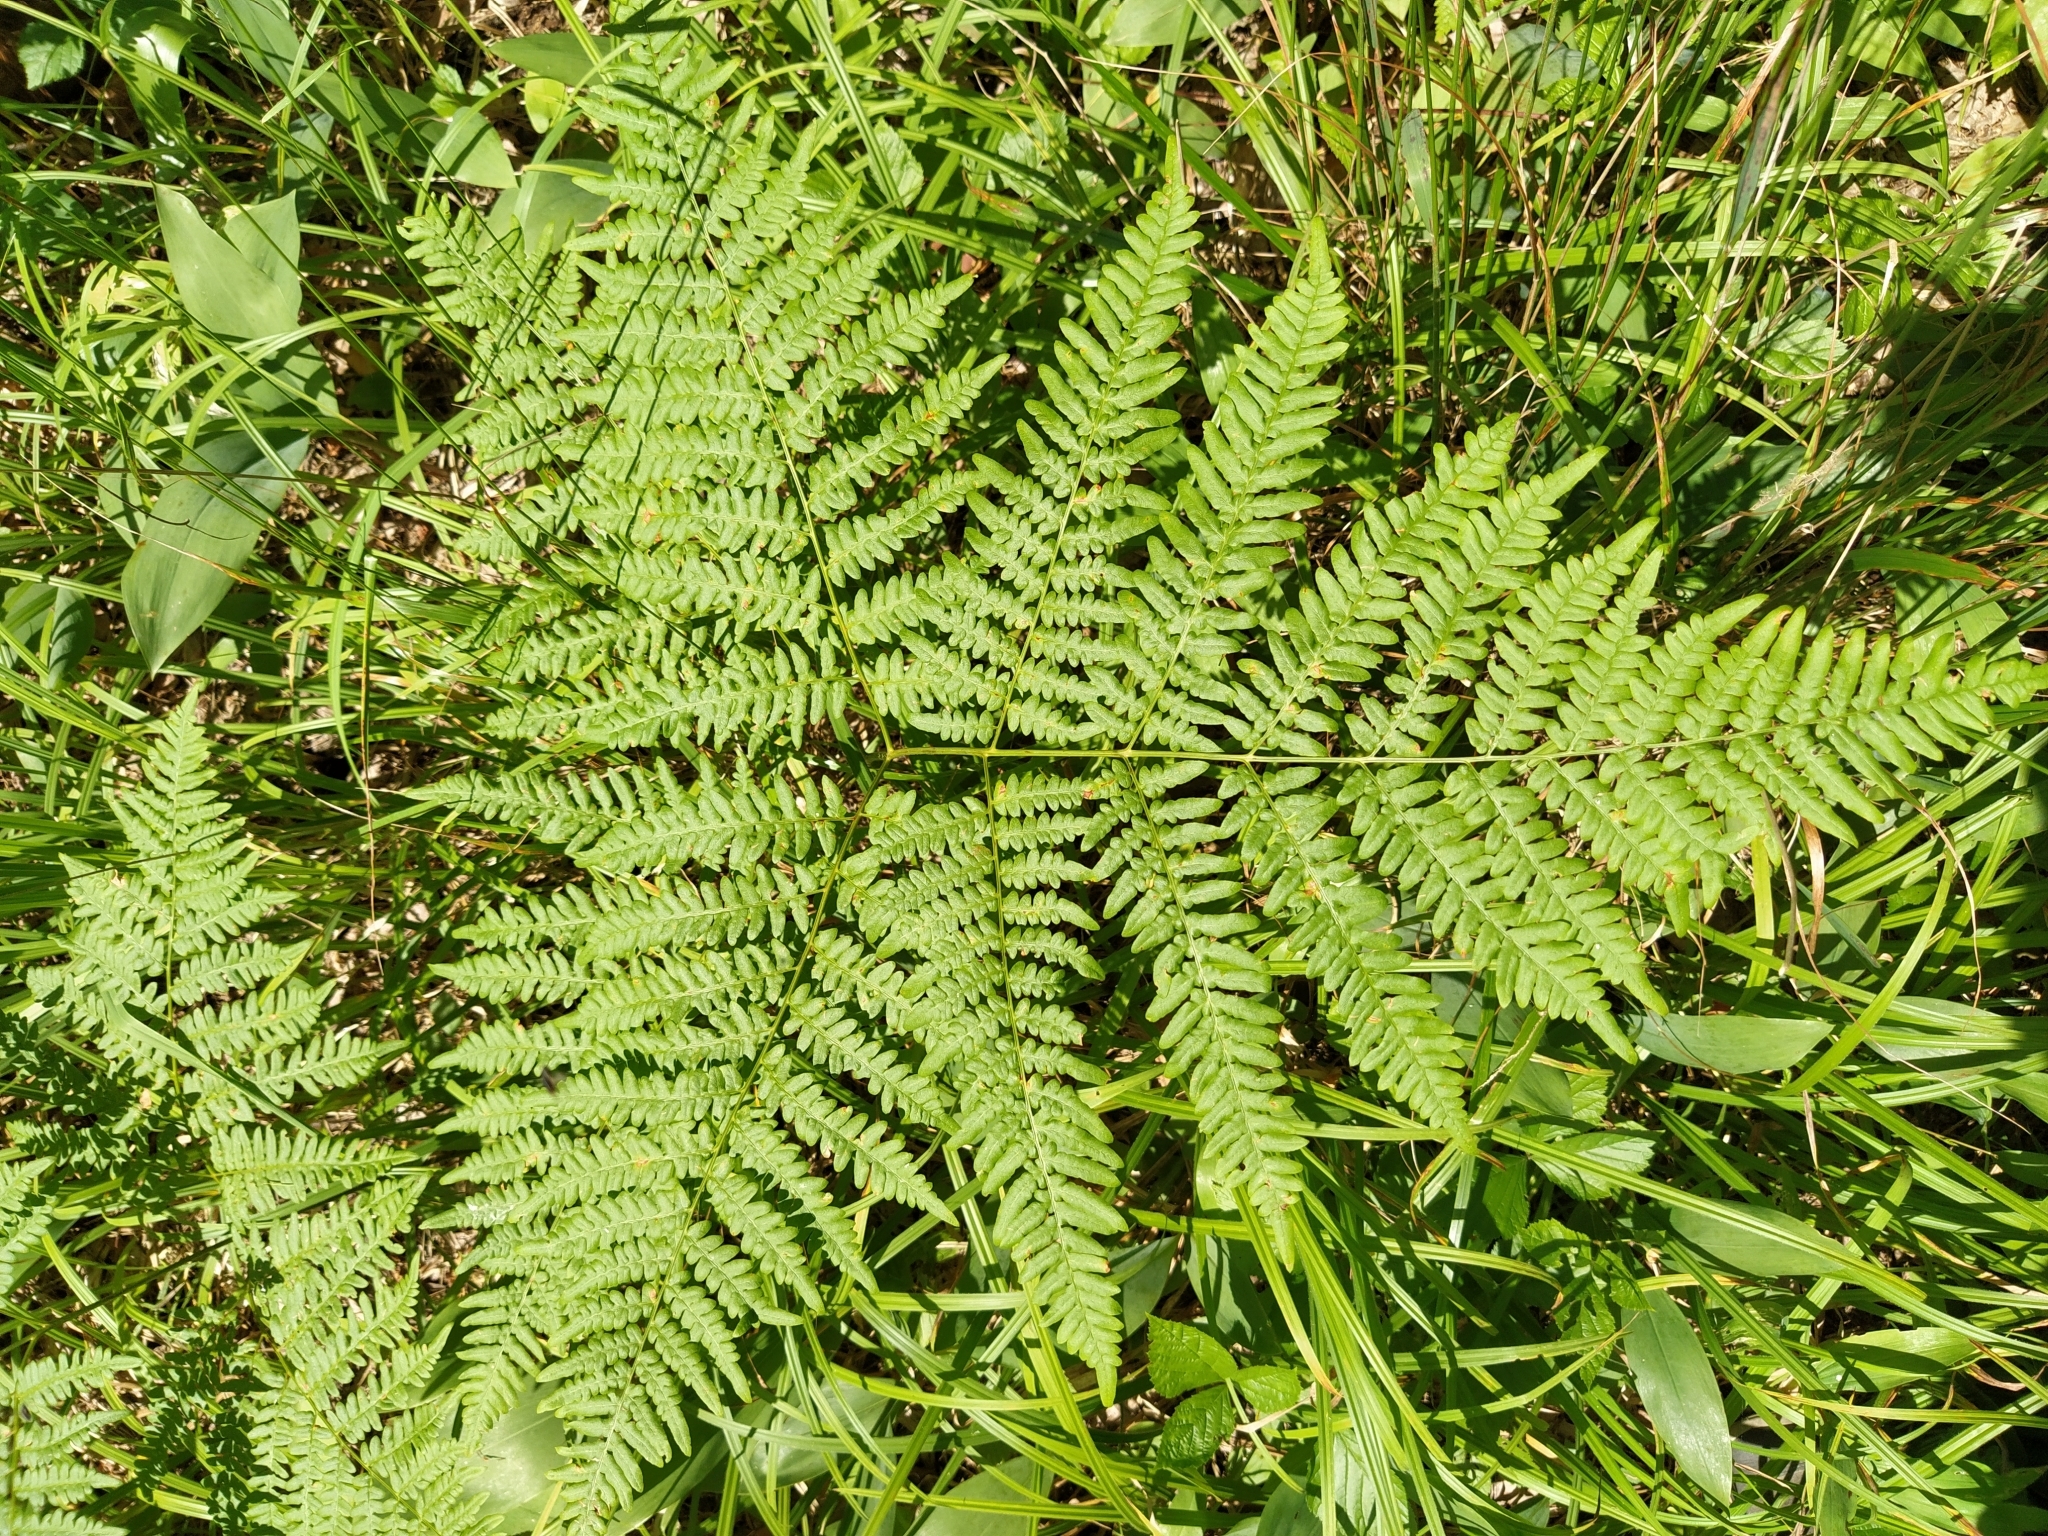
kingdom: Plantae
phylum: Tracheophyta
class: Polypodiopsida
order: Polypodiales
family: Dennstaedtiaceae
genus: Pteridium
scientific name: Pteridium aquilinum
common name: Bracken
